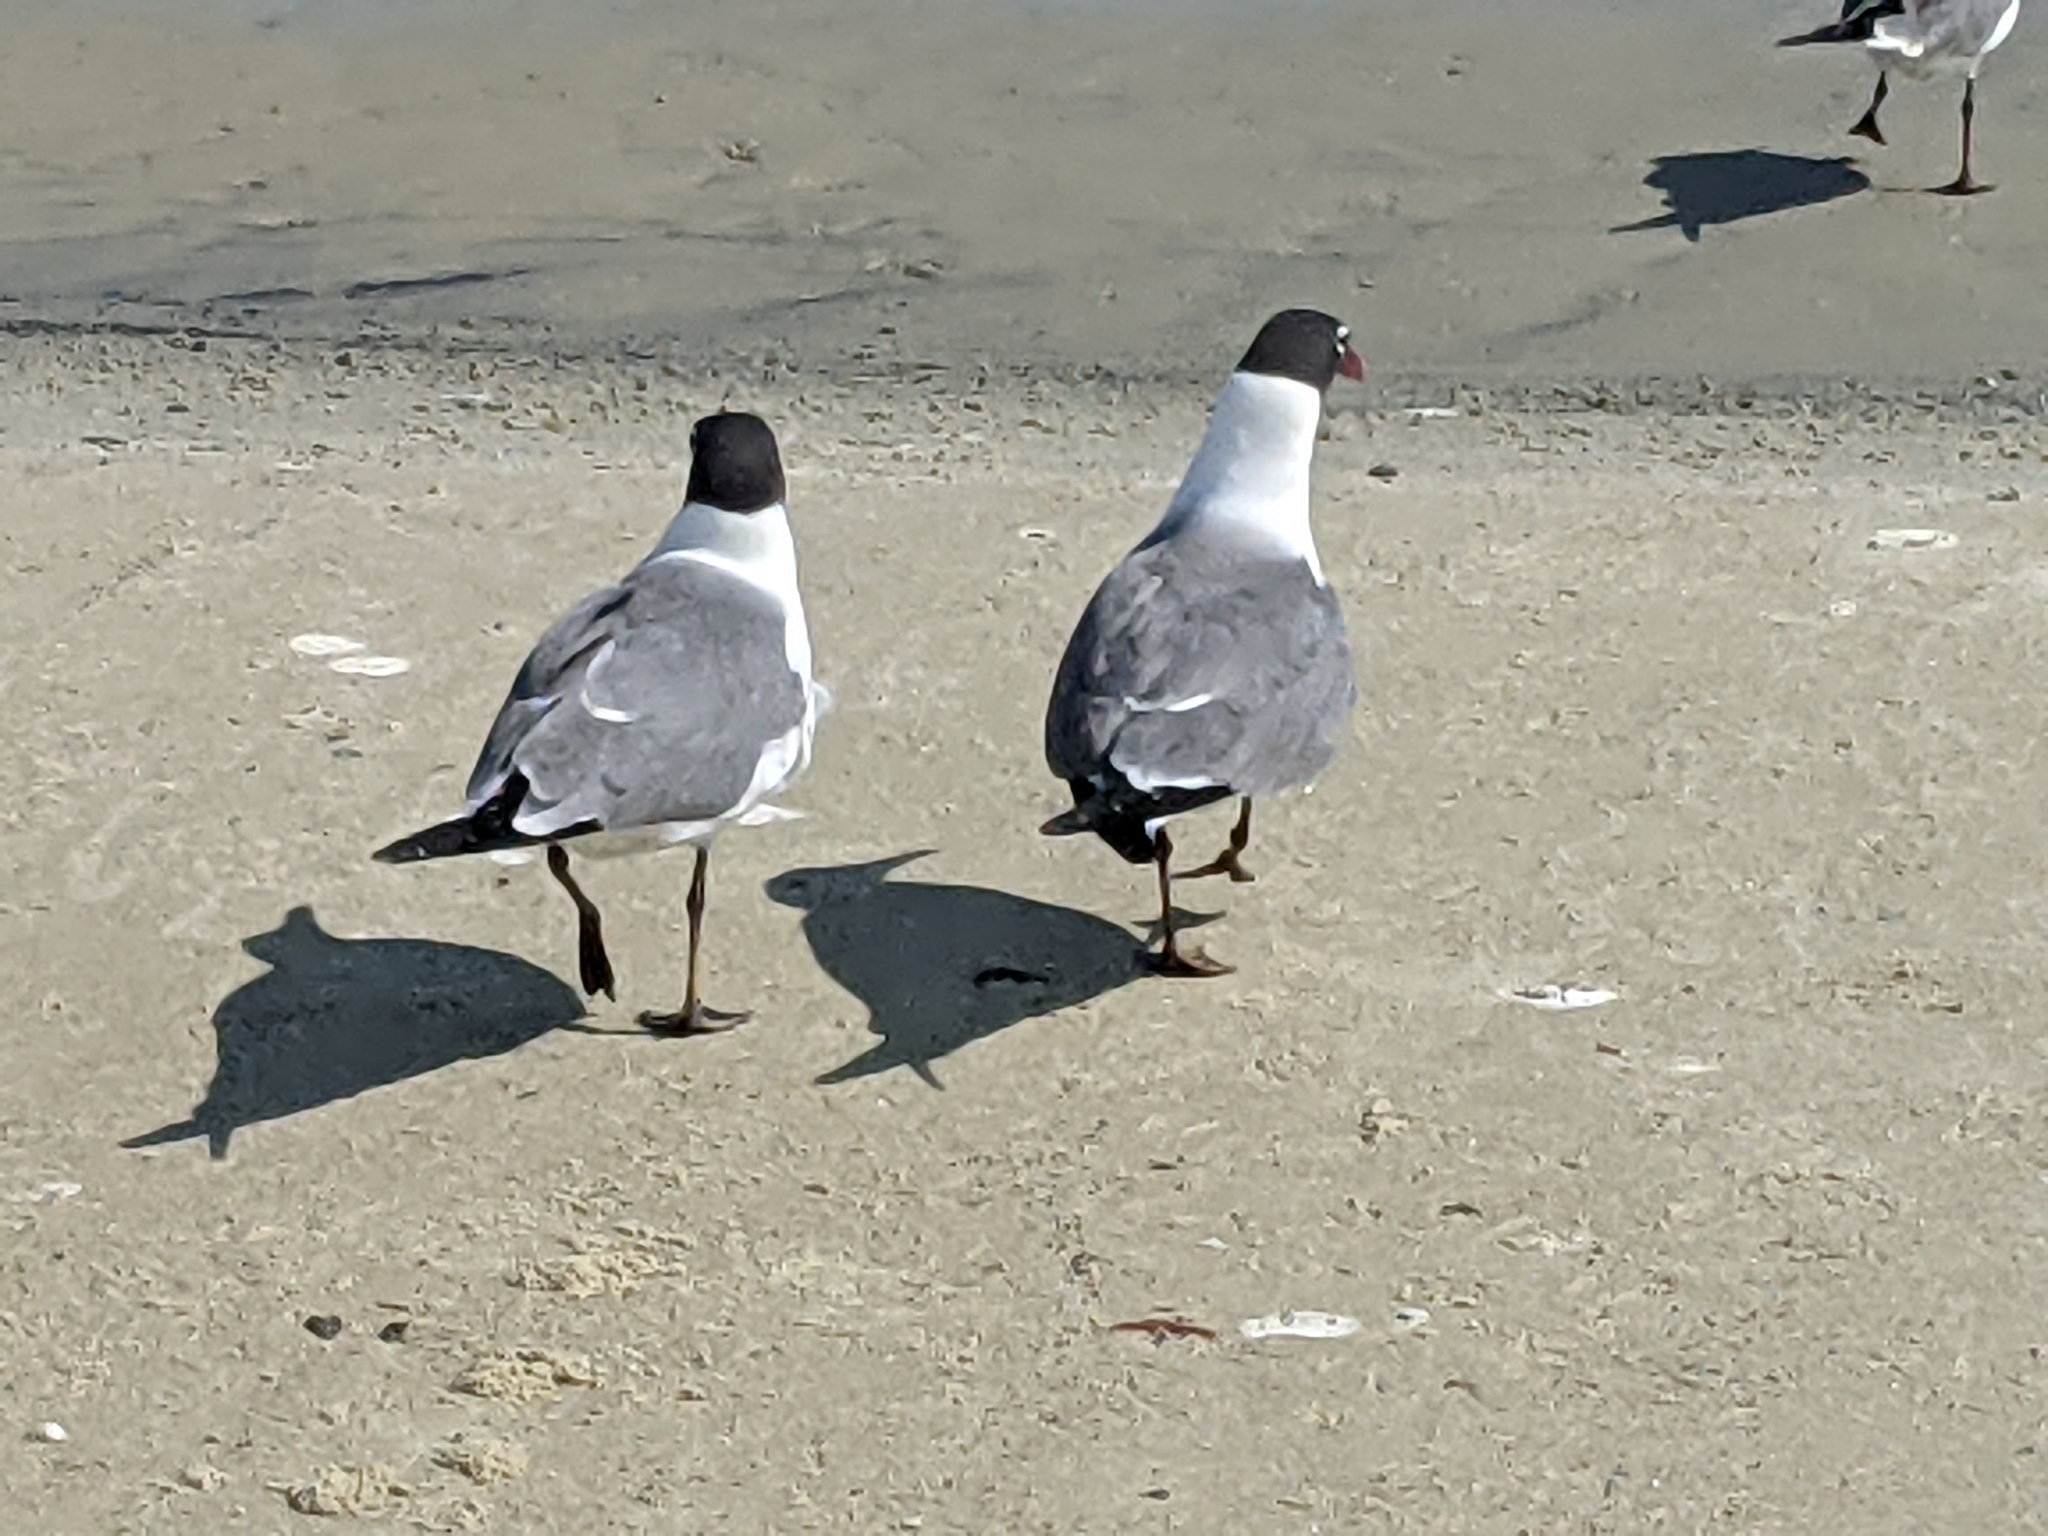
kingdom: Animalia
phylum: Chordata
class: Aves
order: Charadriiformes
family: Laridae
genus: Leucophaeus
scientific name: Leucophaeus atricilla
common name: Laughing gull
